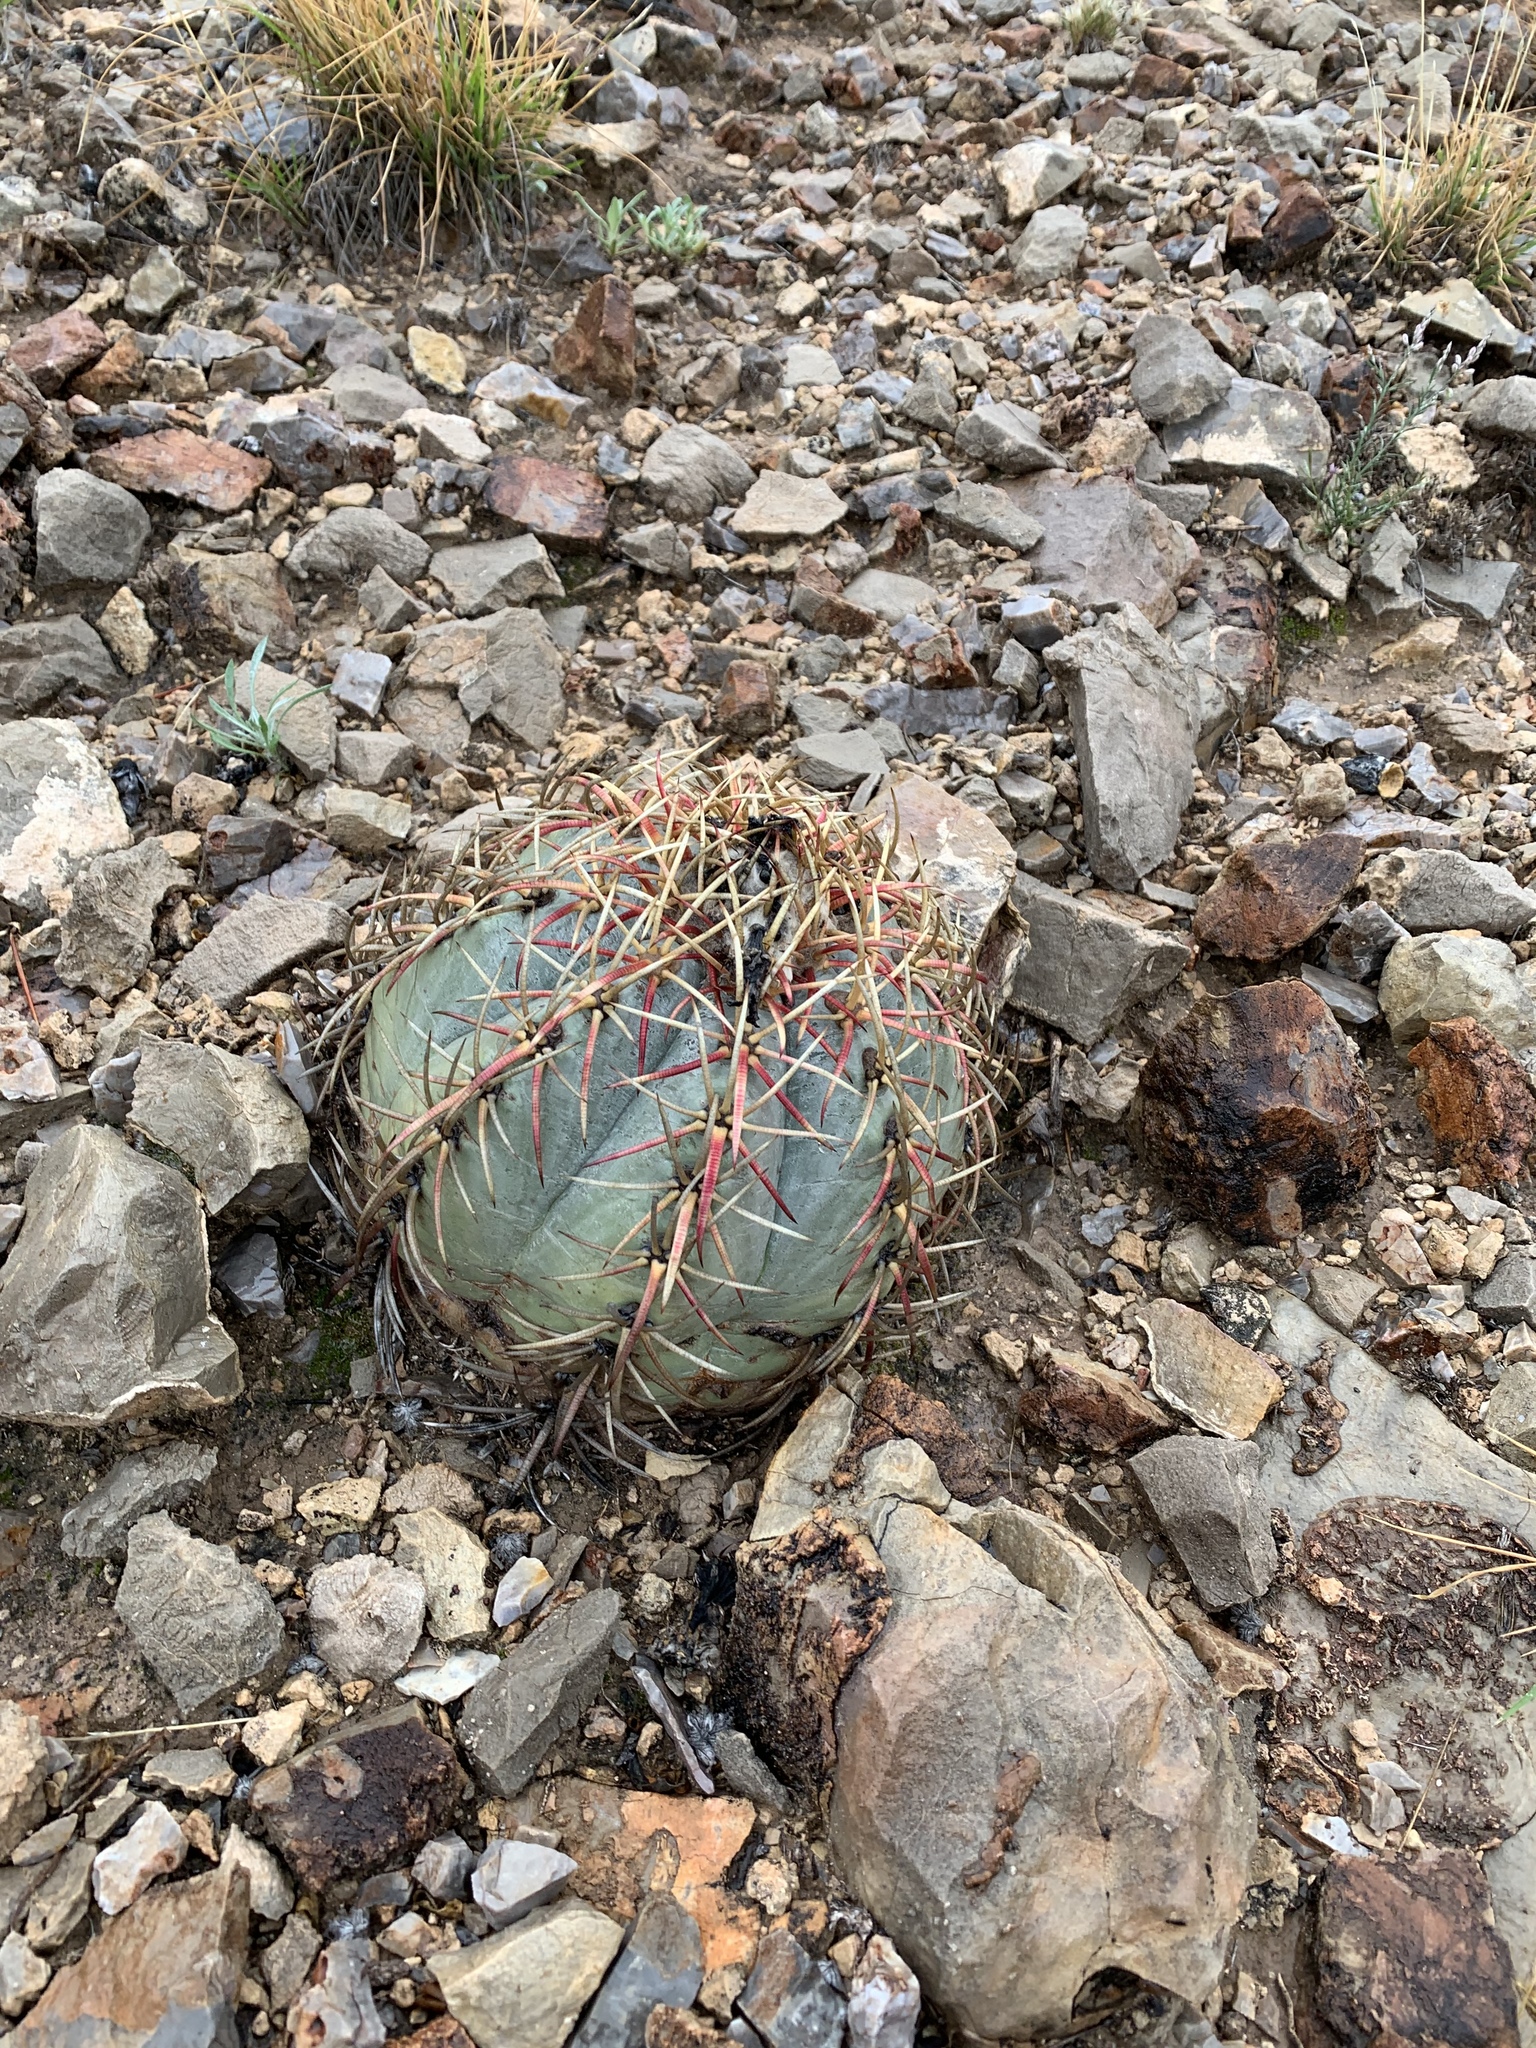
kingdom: Plantae
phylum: Tracheophyta
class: Magnoliopsida
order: Caryophyllales
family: Cactaceae
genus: Echinocactus
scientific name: Echinocactus horizonthalonius
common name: Devilshead
